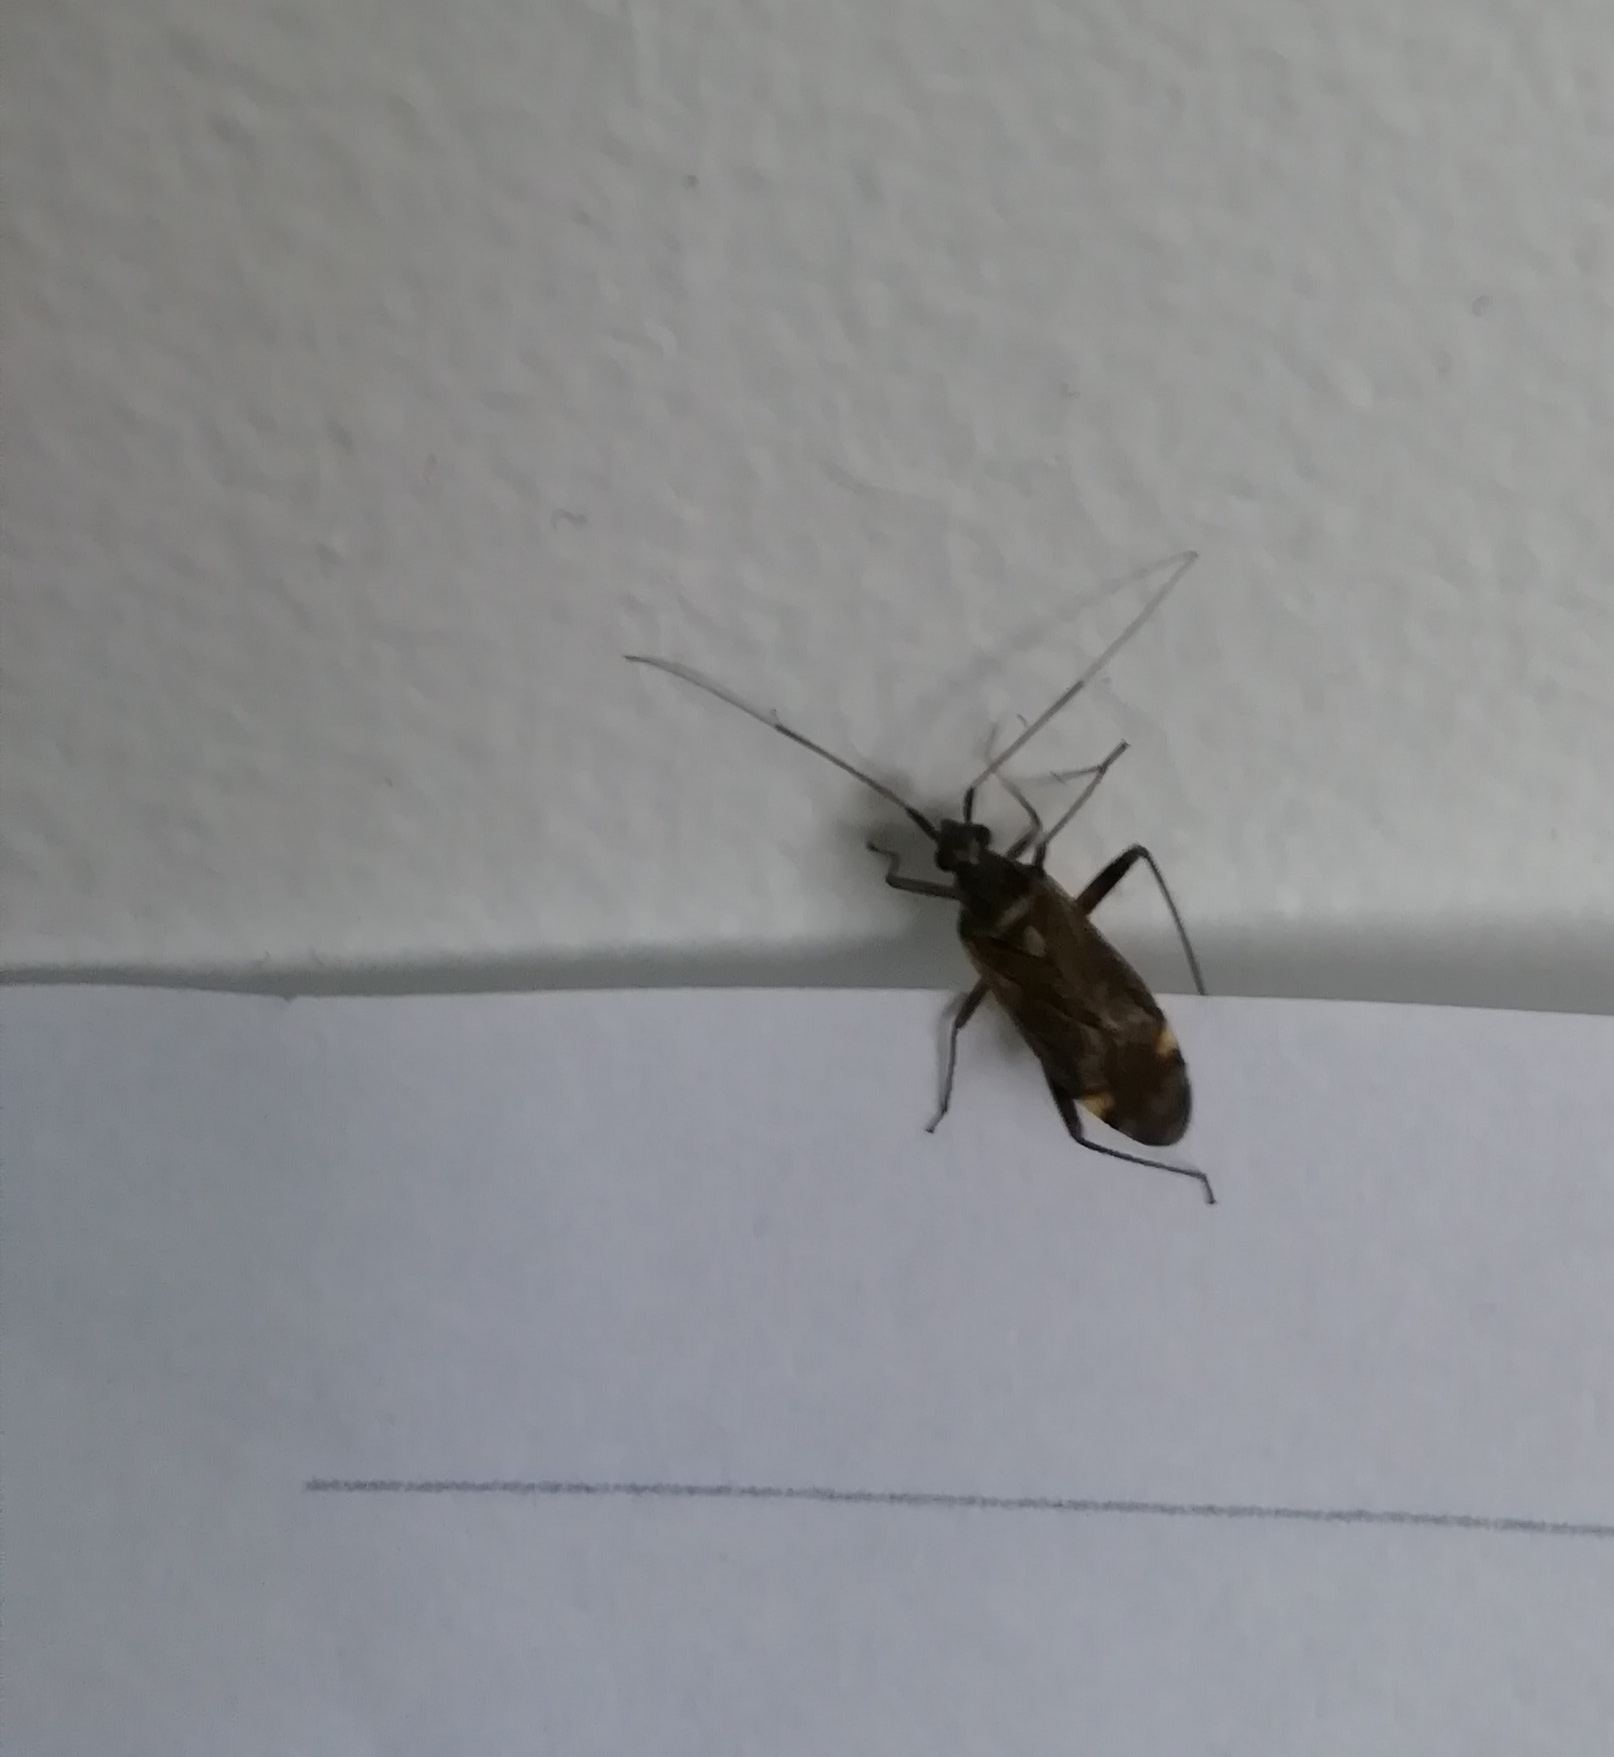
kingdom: Animalia
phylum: Arthropoda
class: Insecta
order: Hemiptera
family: Miridae
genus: Closterotomus
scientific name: Closterotomus fulvomaculatus
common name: Spotted plant bug
